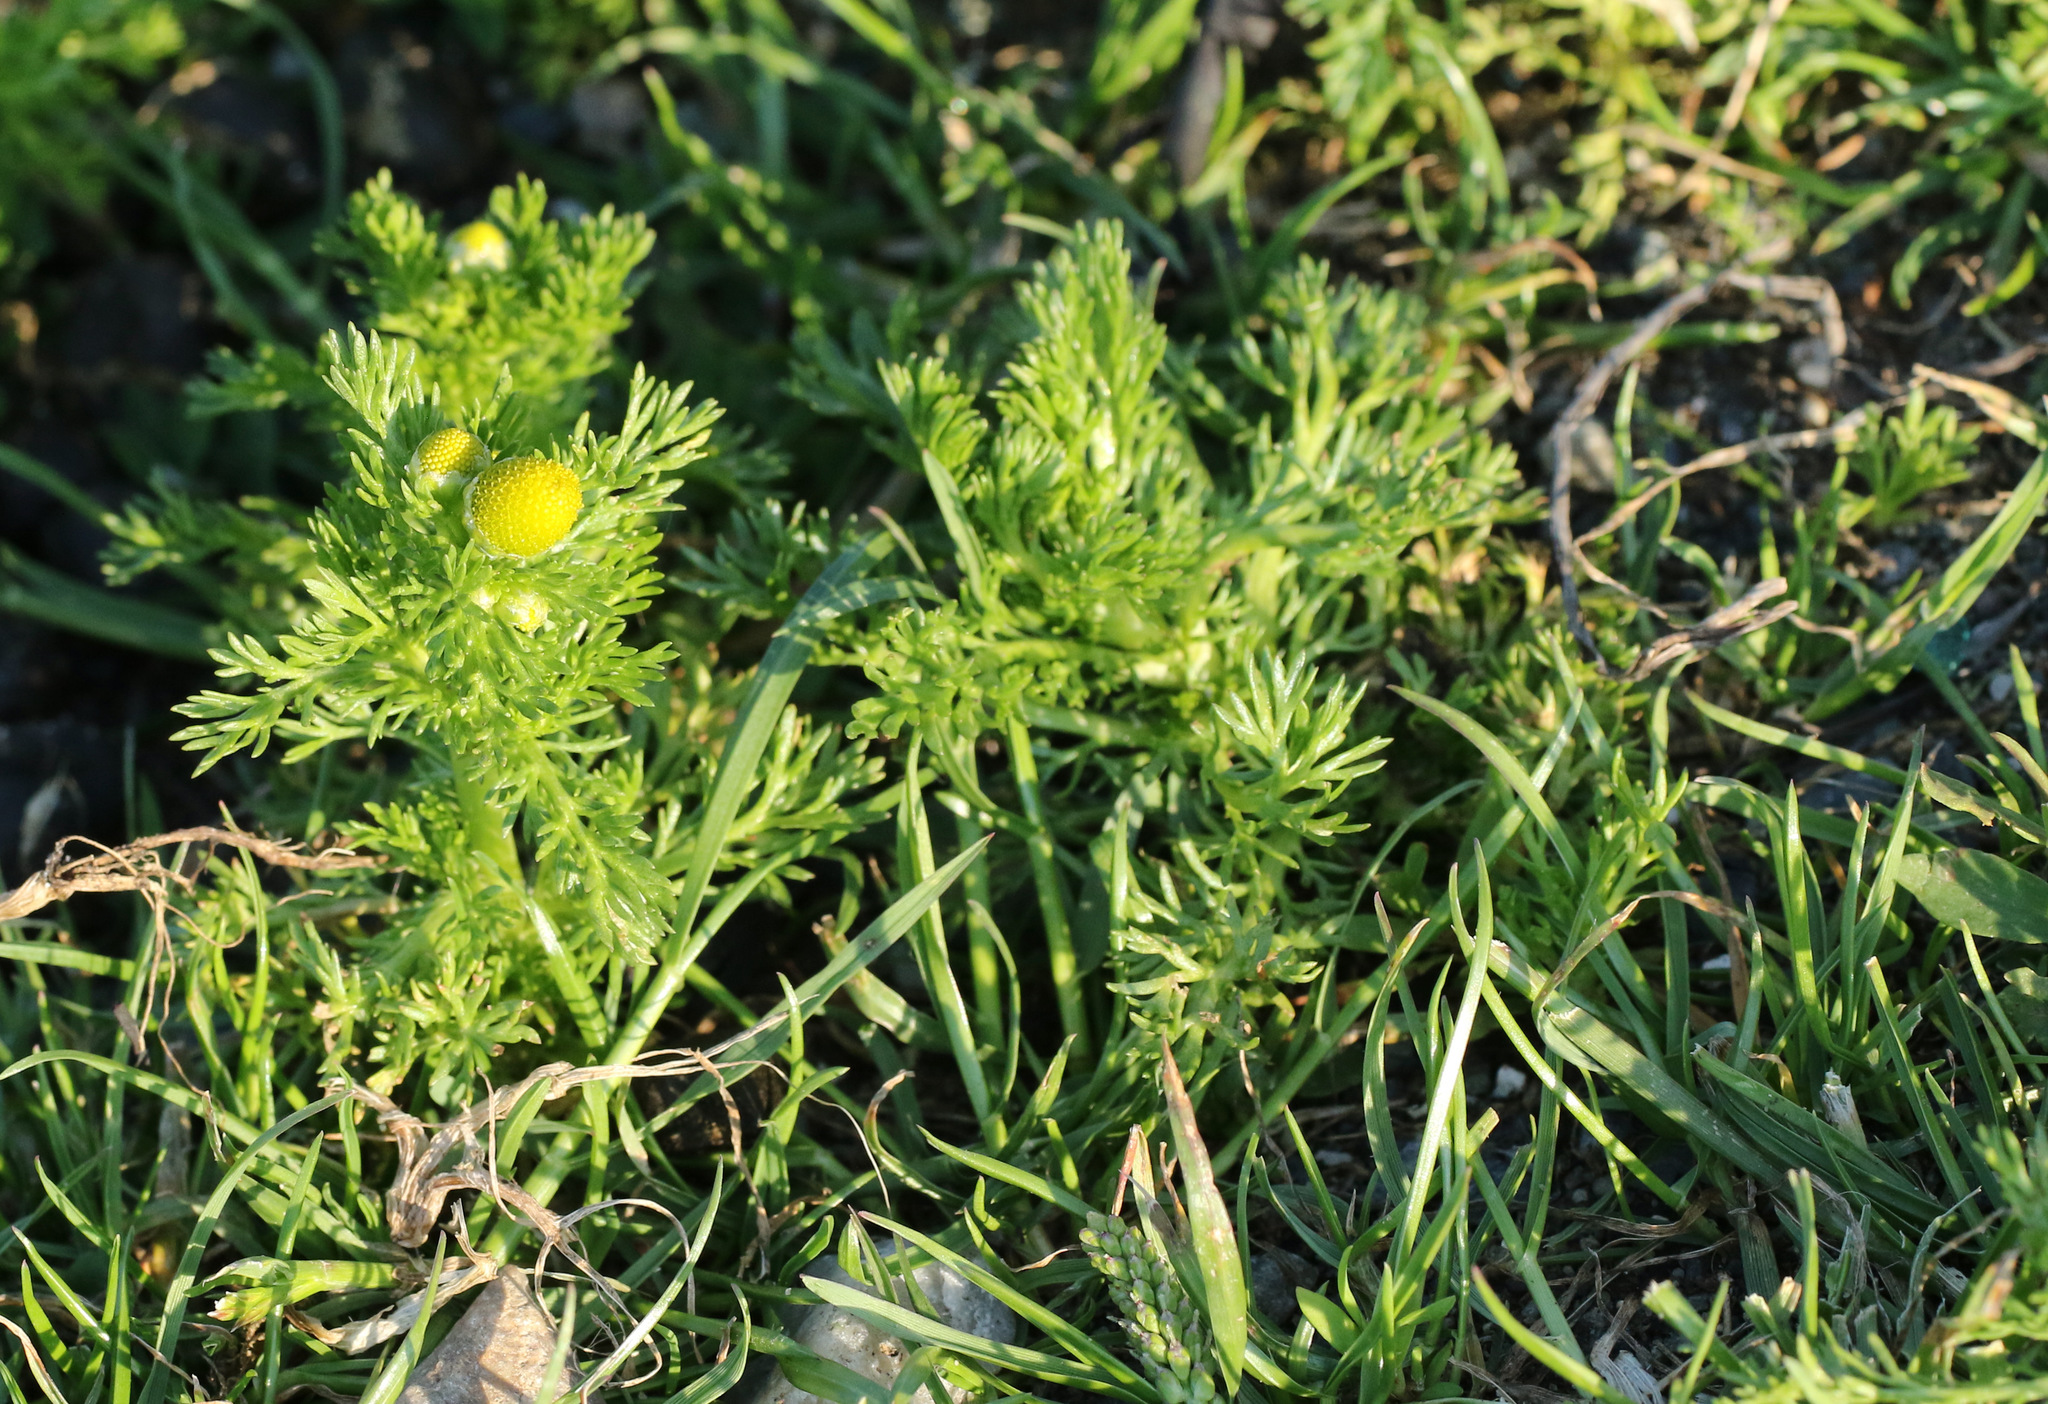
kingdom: Plantae
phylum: Tracheophyta
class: Magnoliopsida
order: Asterales
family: Asteraceae
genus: Matricaria
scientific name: Matricaria discoidea
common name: Disc mayweed
